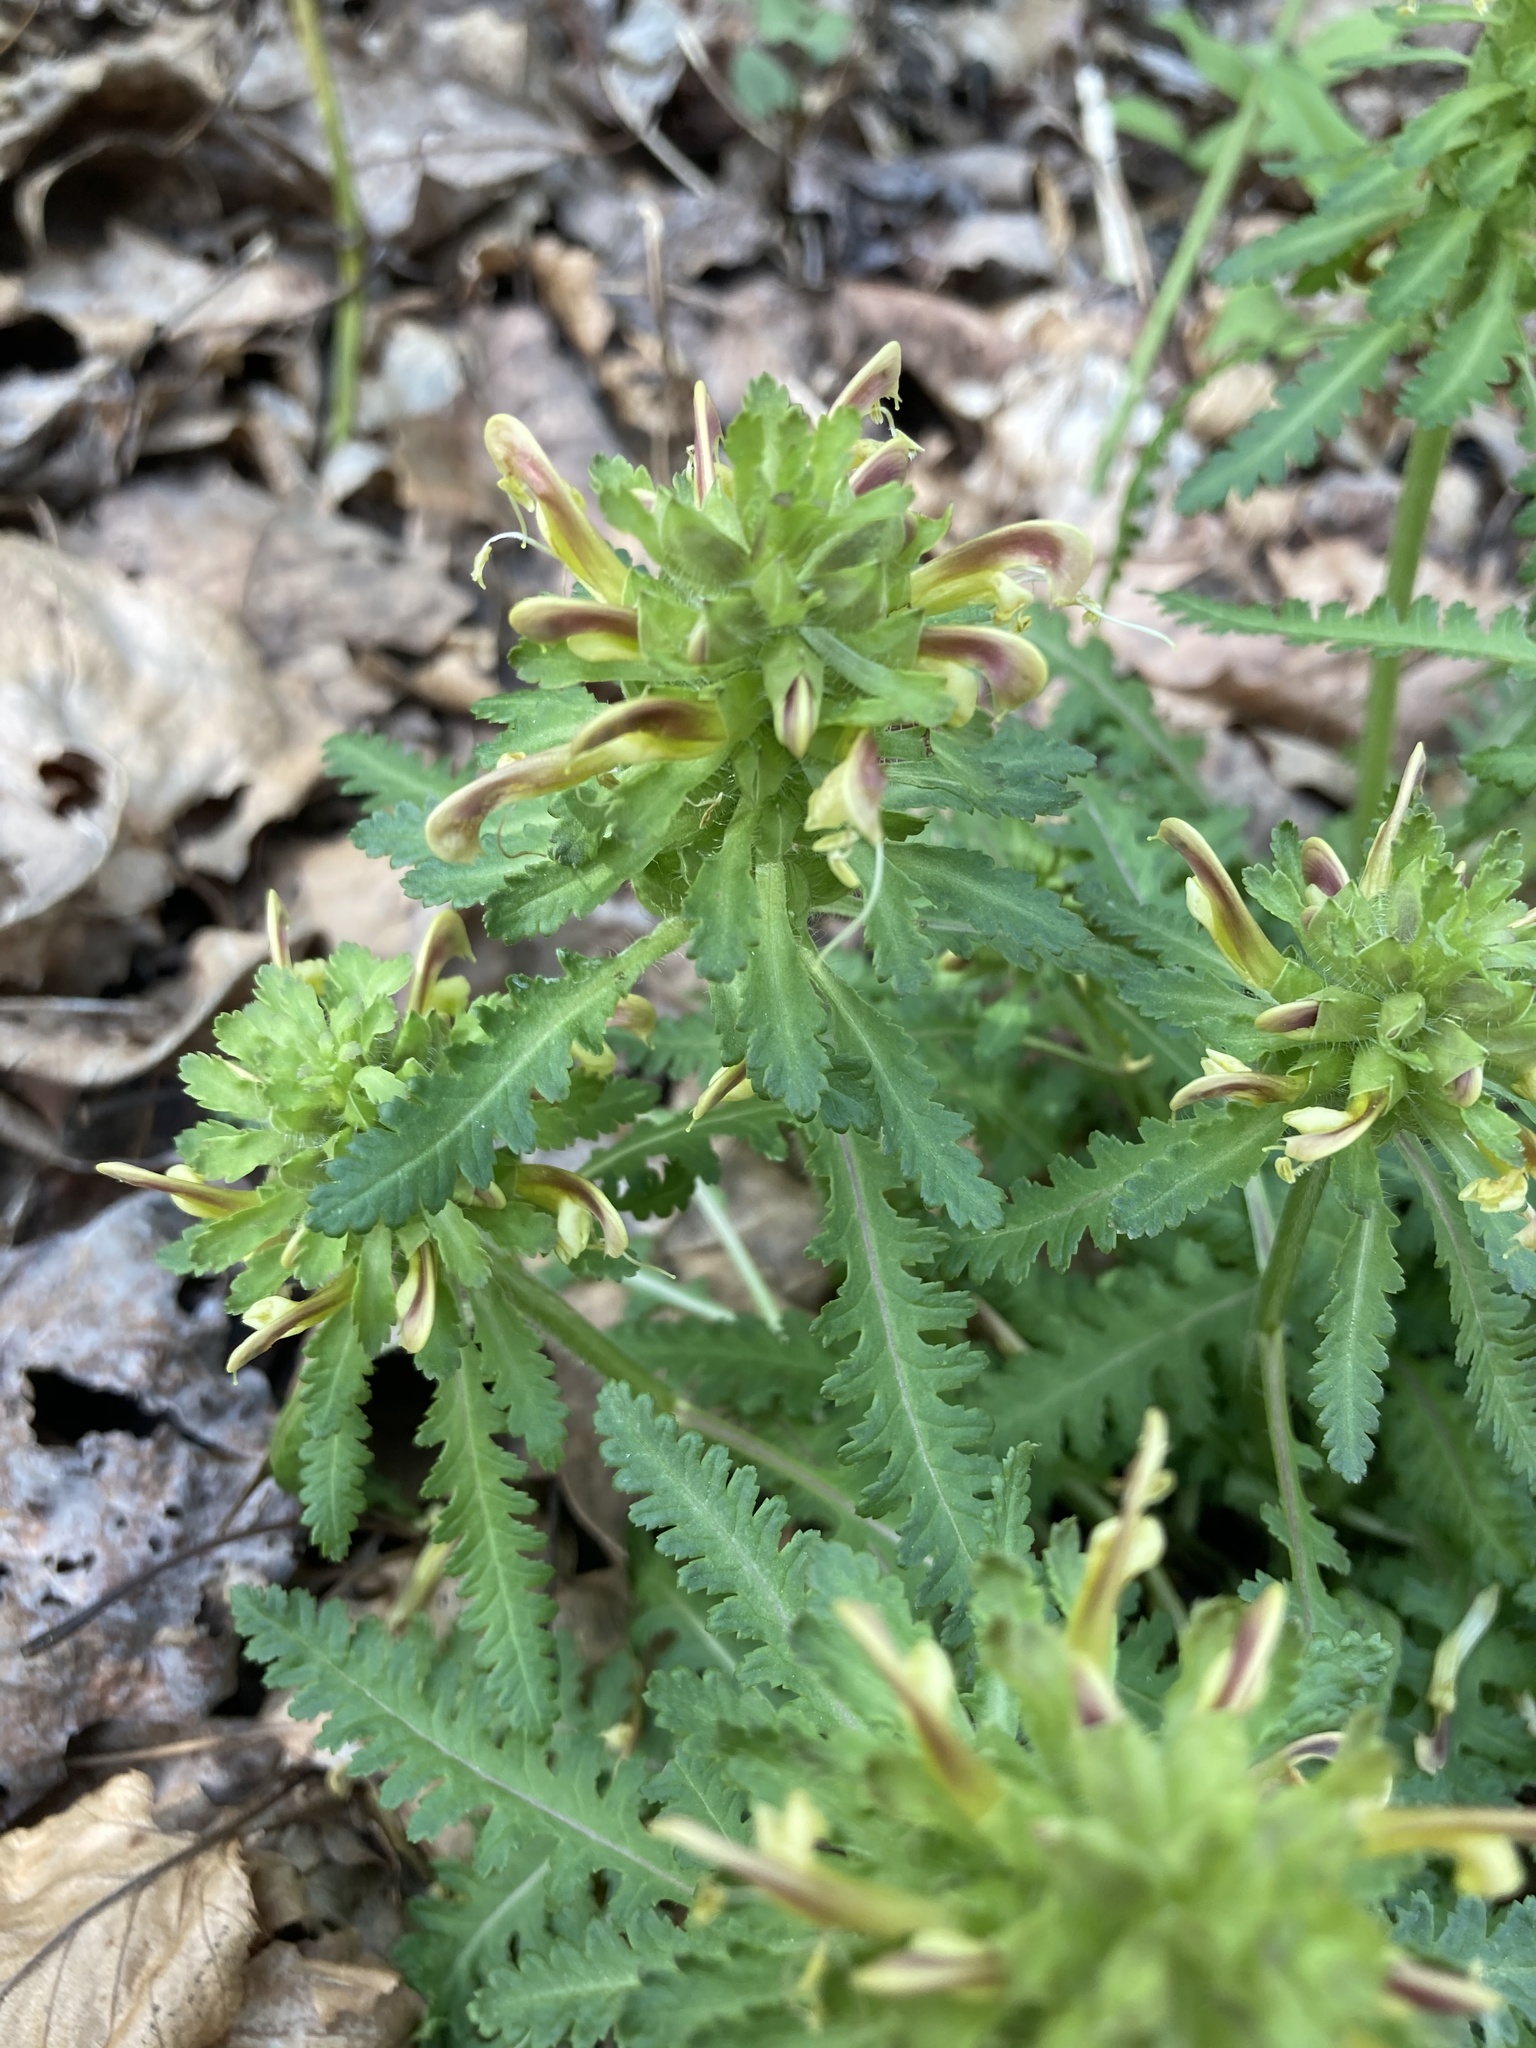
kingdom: Plantae
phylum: Tracheophyta
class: Magnoliopsida
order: Lamiales
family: Orobanchaceae
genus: Pedicularis
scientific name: Pedicularis canadensis
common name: Early lousewort
